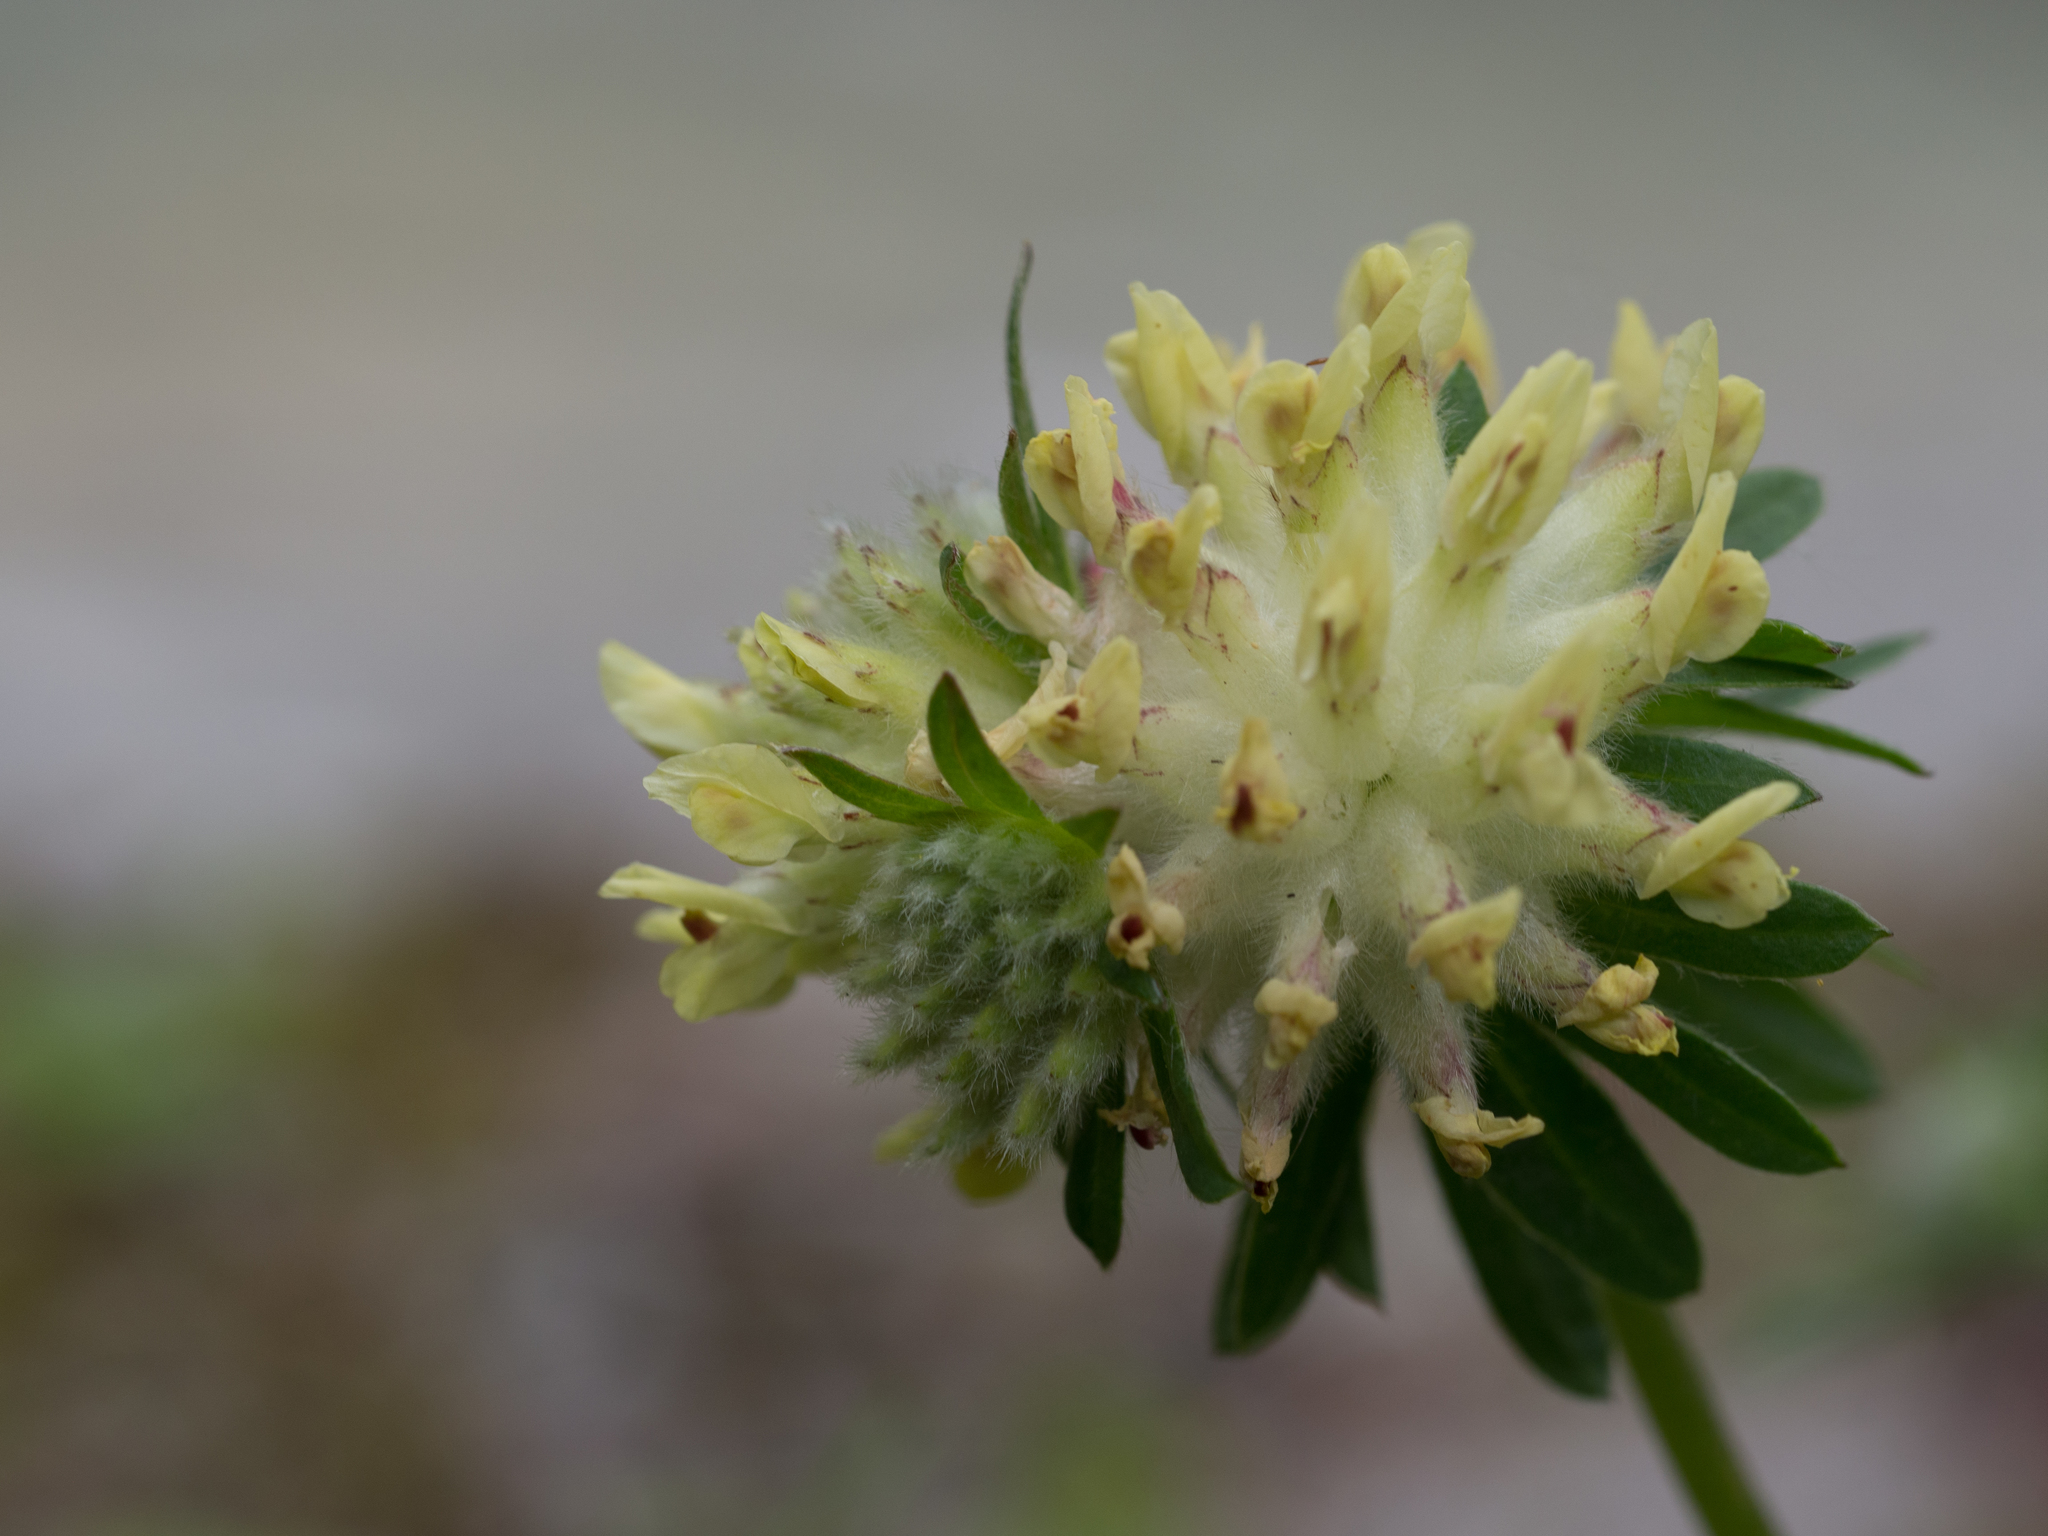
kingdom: Plantae
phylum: Tracheophyta
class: Magnoliopsida
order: Fabales
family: Fabaceae
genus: Anthyllis
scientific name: Anthyllis vulneraria
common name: Kidney vetch
